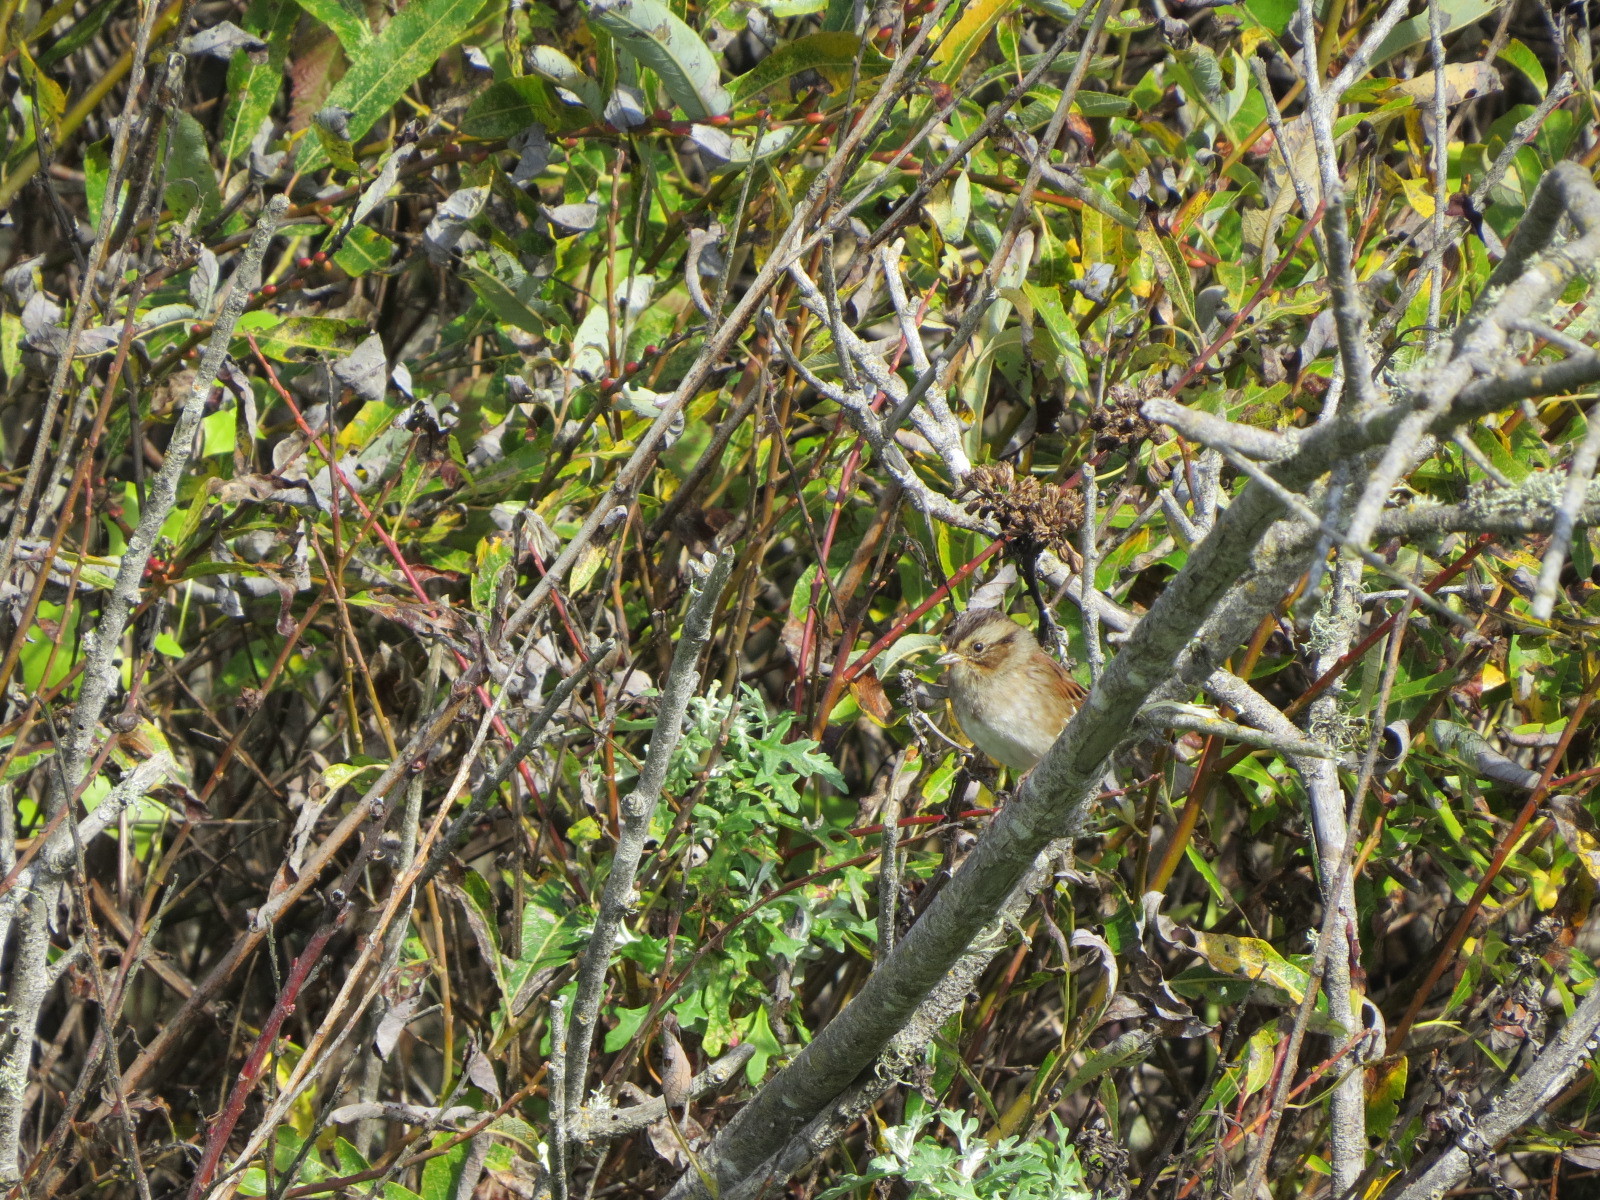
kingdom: Animalia
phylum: Chordata
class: Aves
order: Passeriformes
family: Passerellidae
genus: Melospiza
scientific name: Melospiza georgiana
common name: Swamp sparrow
